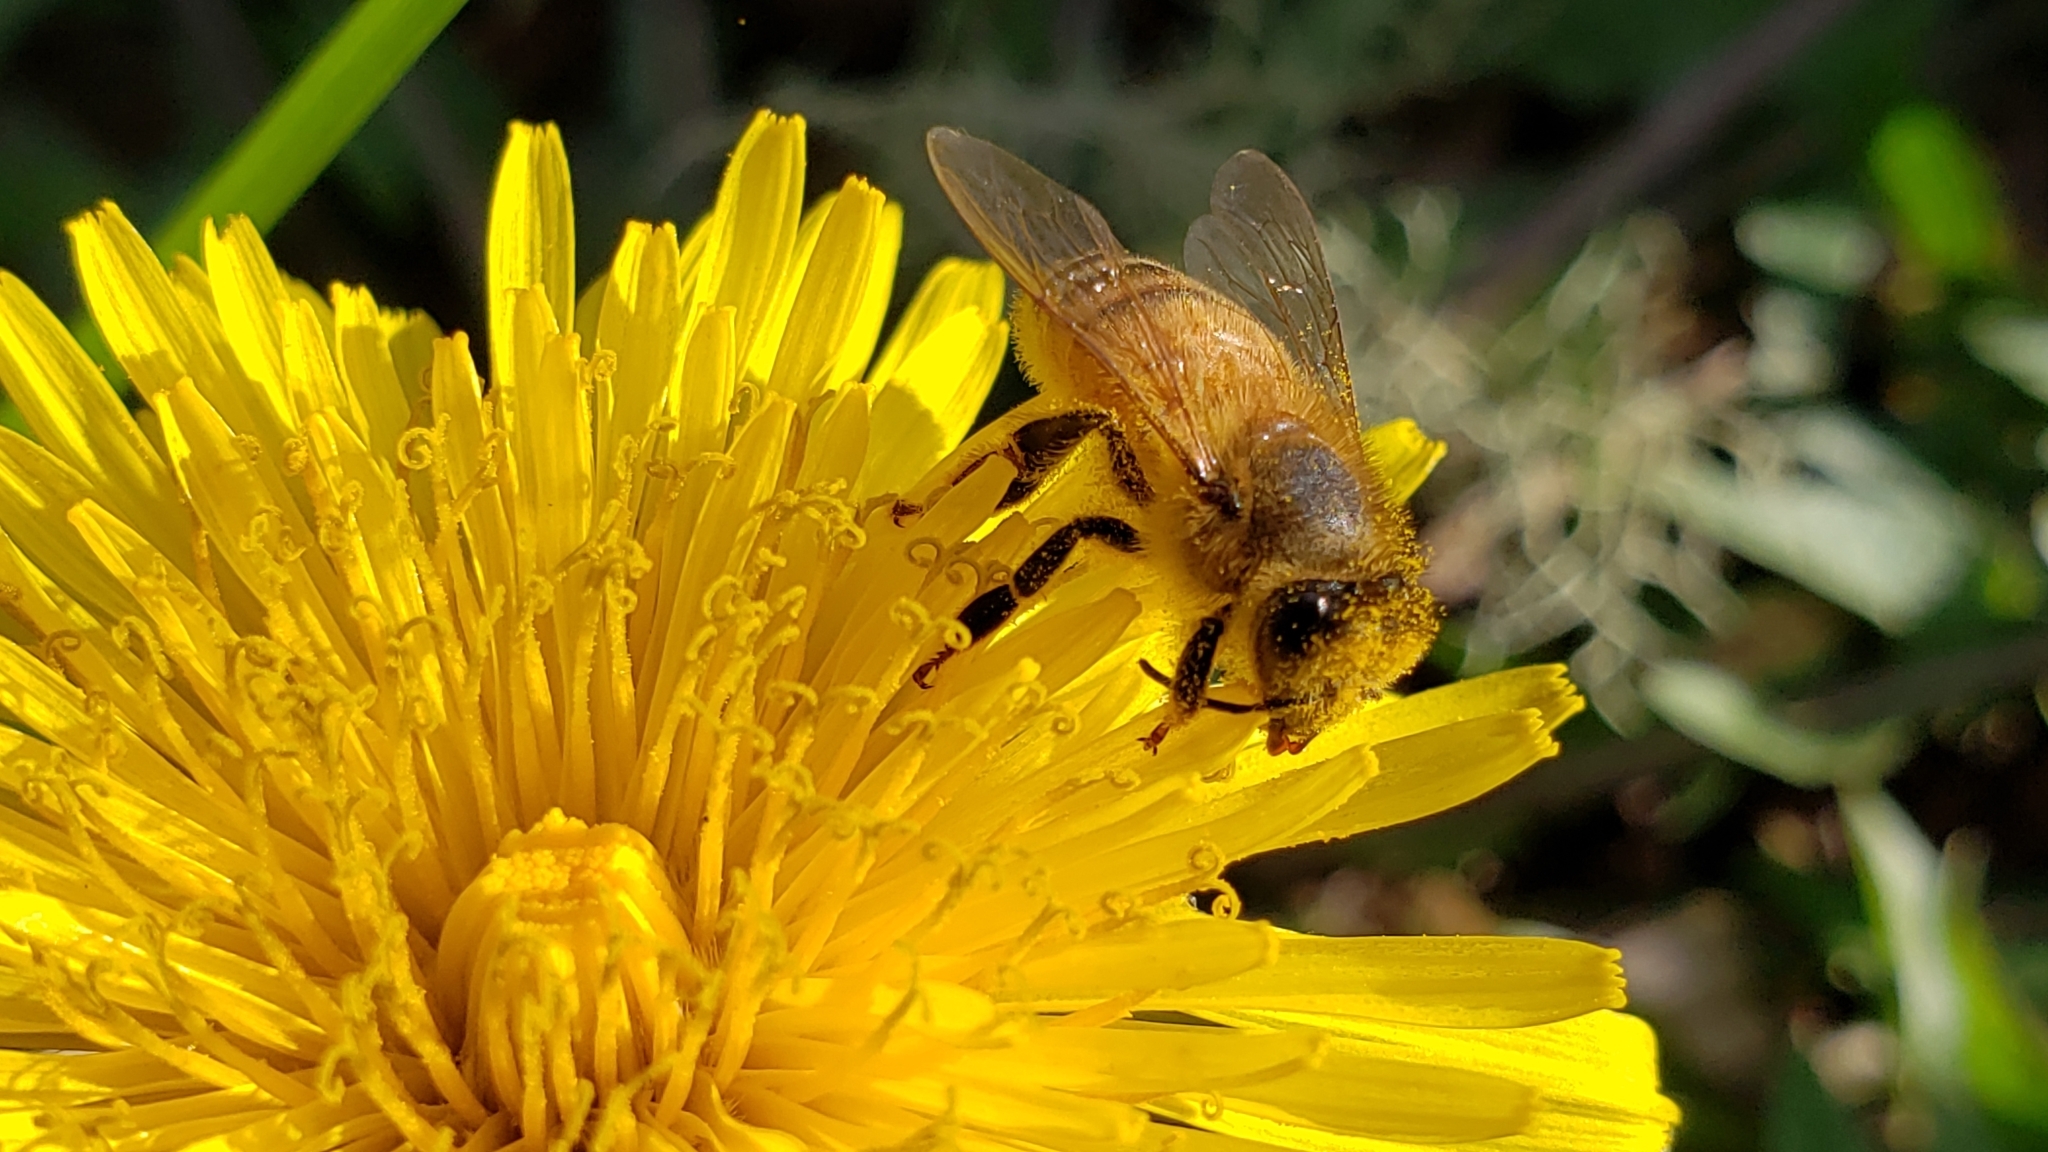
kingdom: Animalia
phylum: Arthropoda
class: Insecta
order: Hymenoptera
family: Apidae
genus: Apis
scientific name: Apis mellifera
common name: Honey bee
